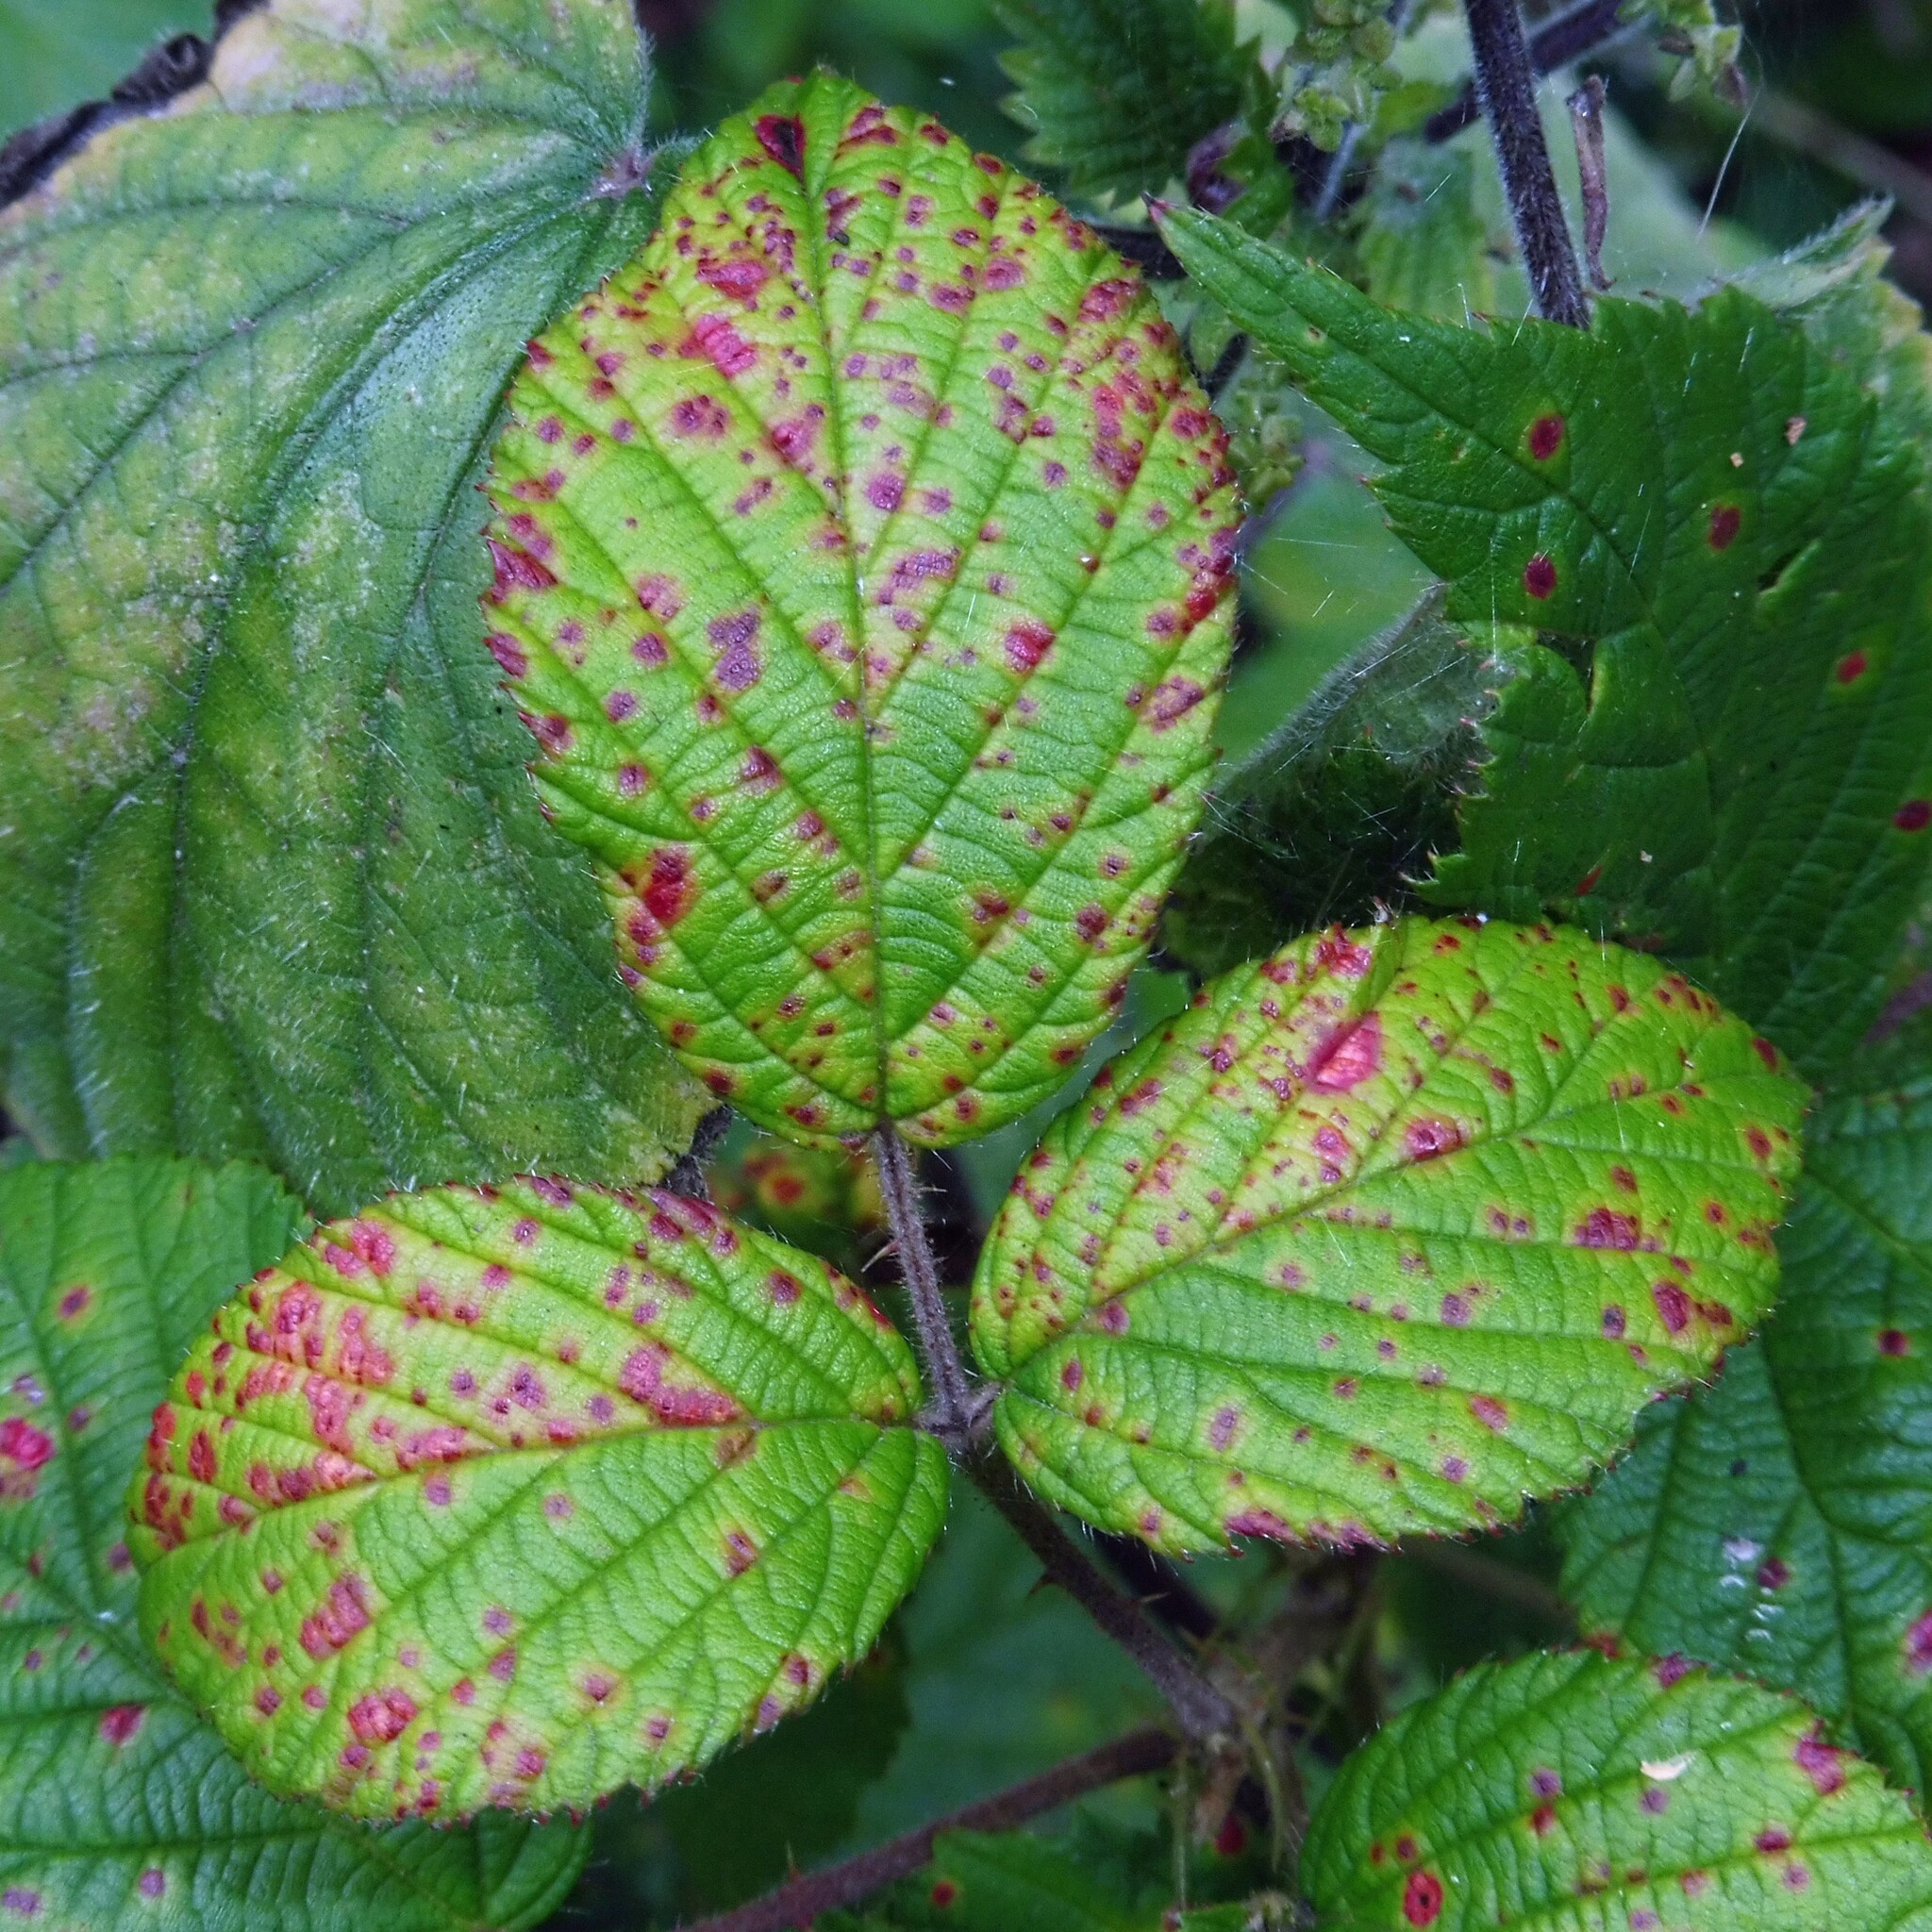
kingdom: Fungi
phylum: Basidiomycota
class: Pucciniomycetes
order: Pucciniales
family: Phragmidiaceae
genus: Phragmidium
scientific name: Phragmidium violaceum
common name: Violet bramble rust
